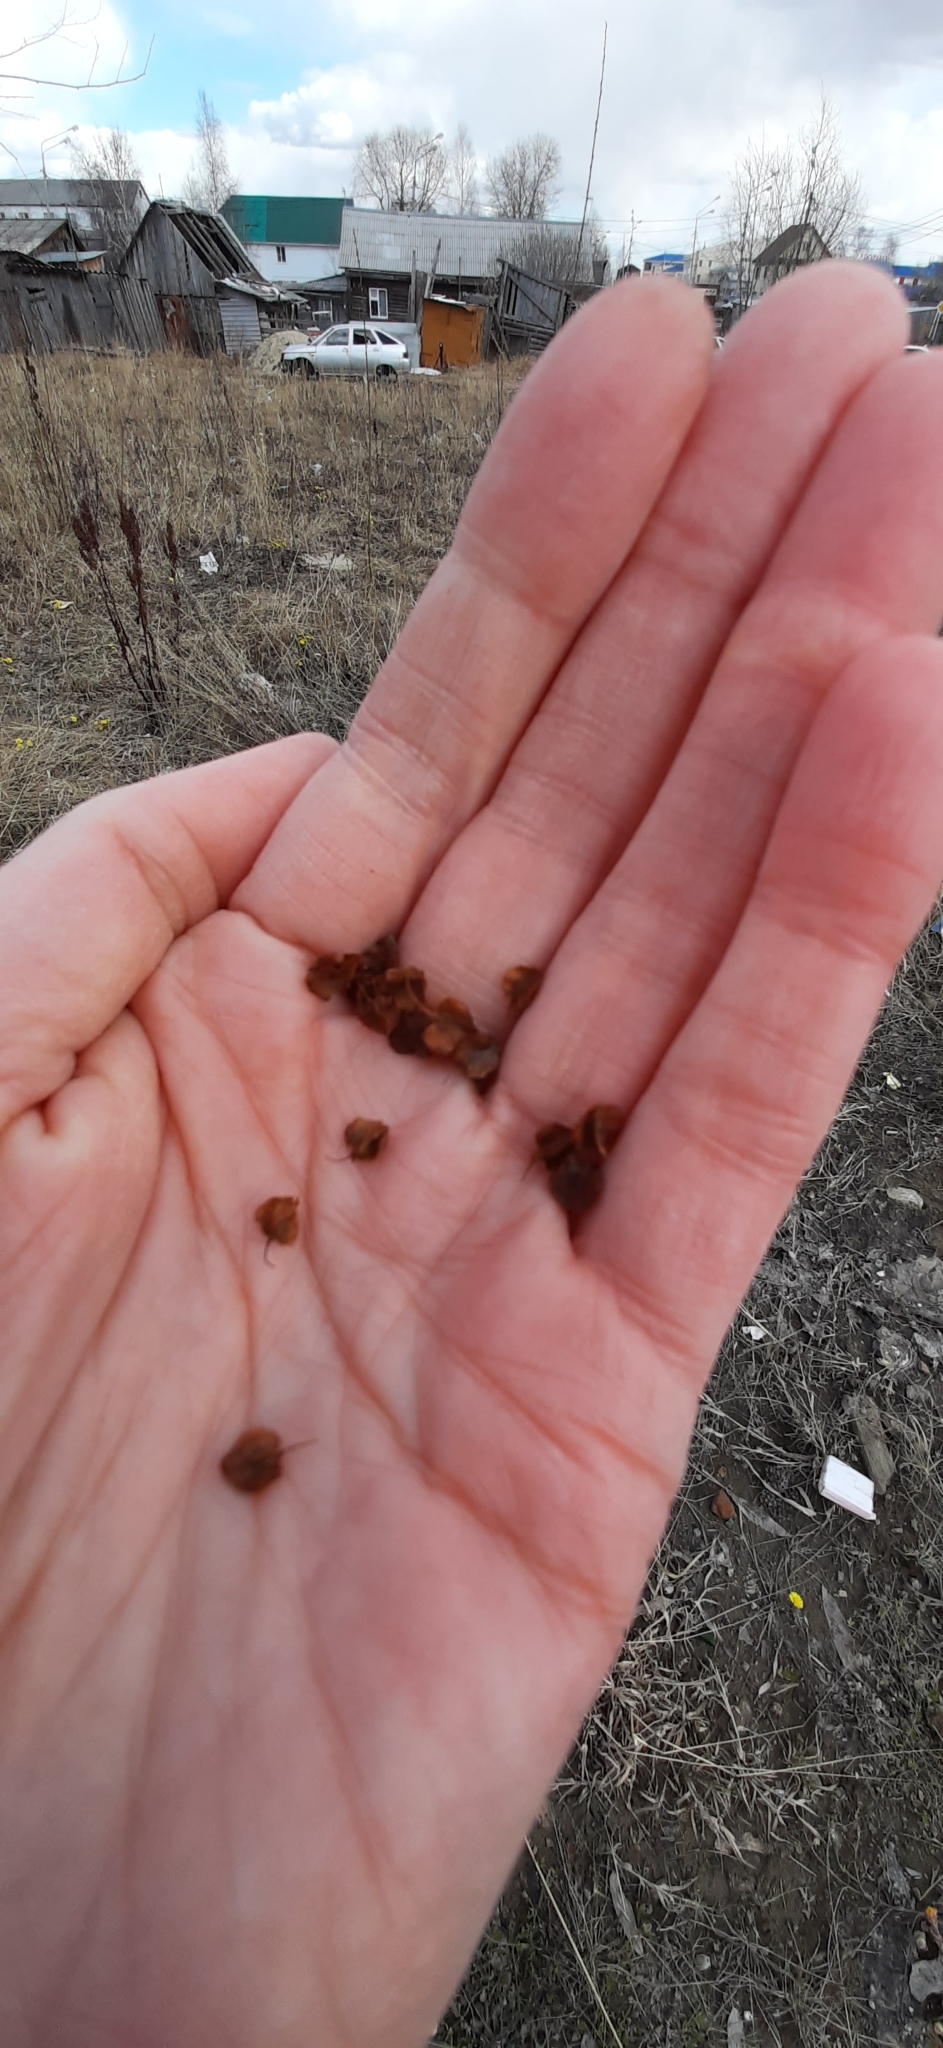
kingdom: Plantae
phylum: Tracheophyta
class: Magnoliopsida
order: Caryophyllales
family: Polygonaceae
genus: Rumex
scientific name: Rumex pseudonatronatus
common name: Field dock
